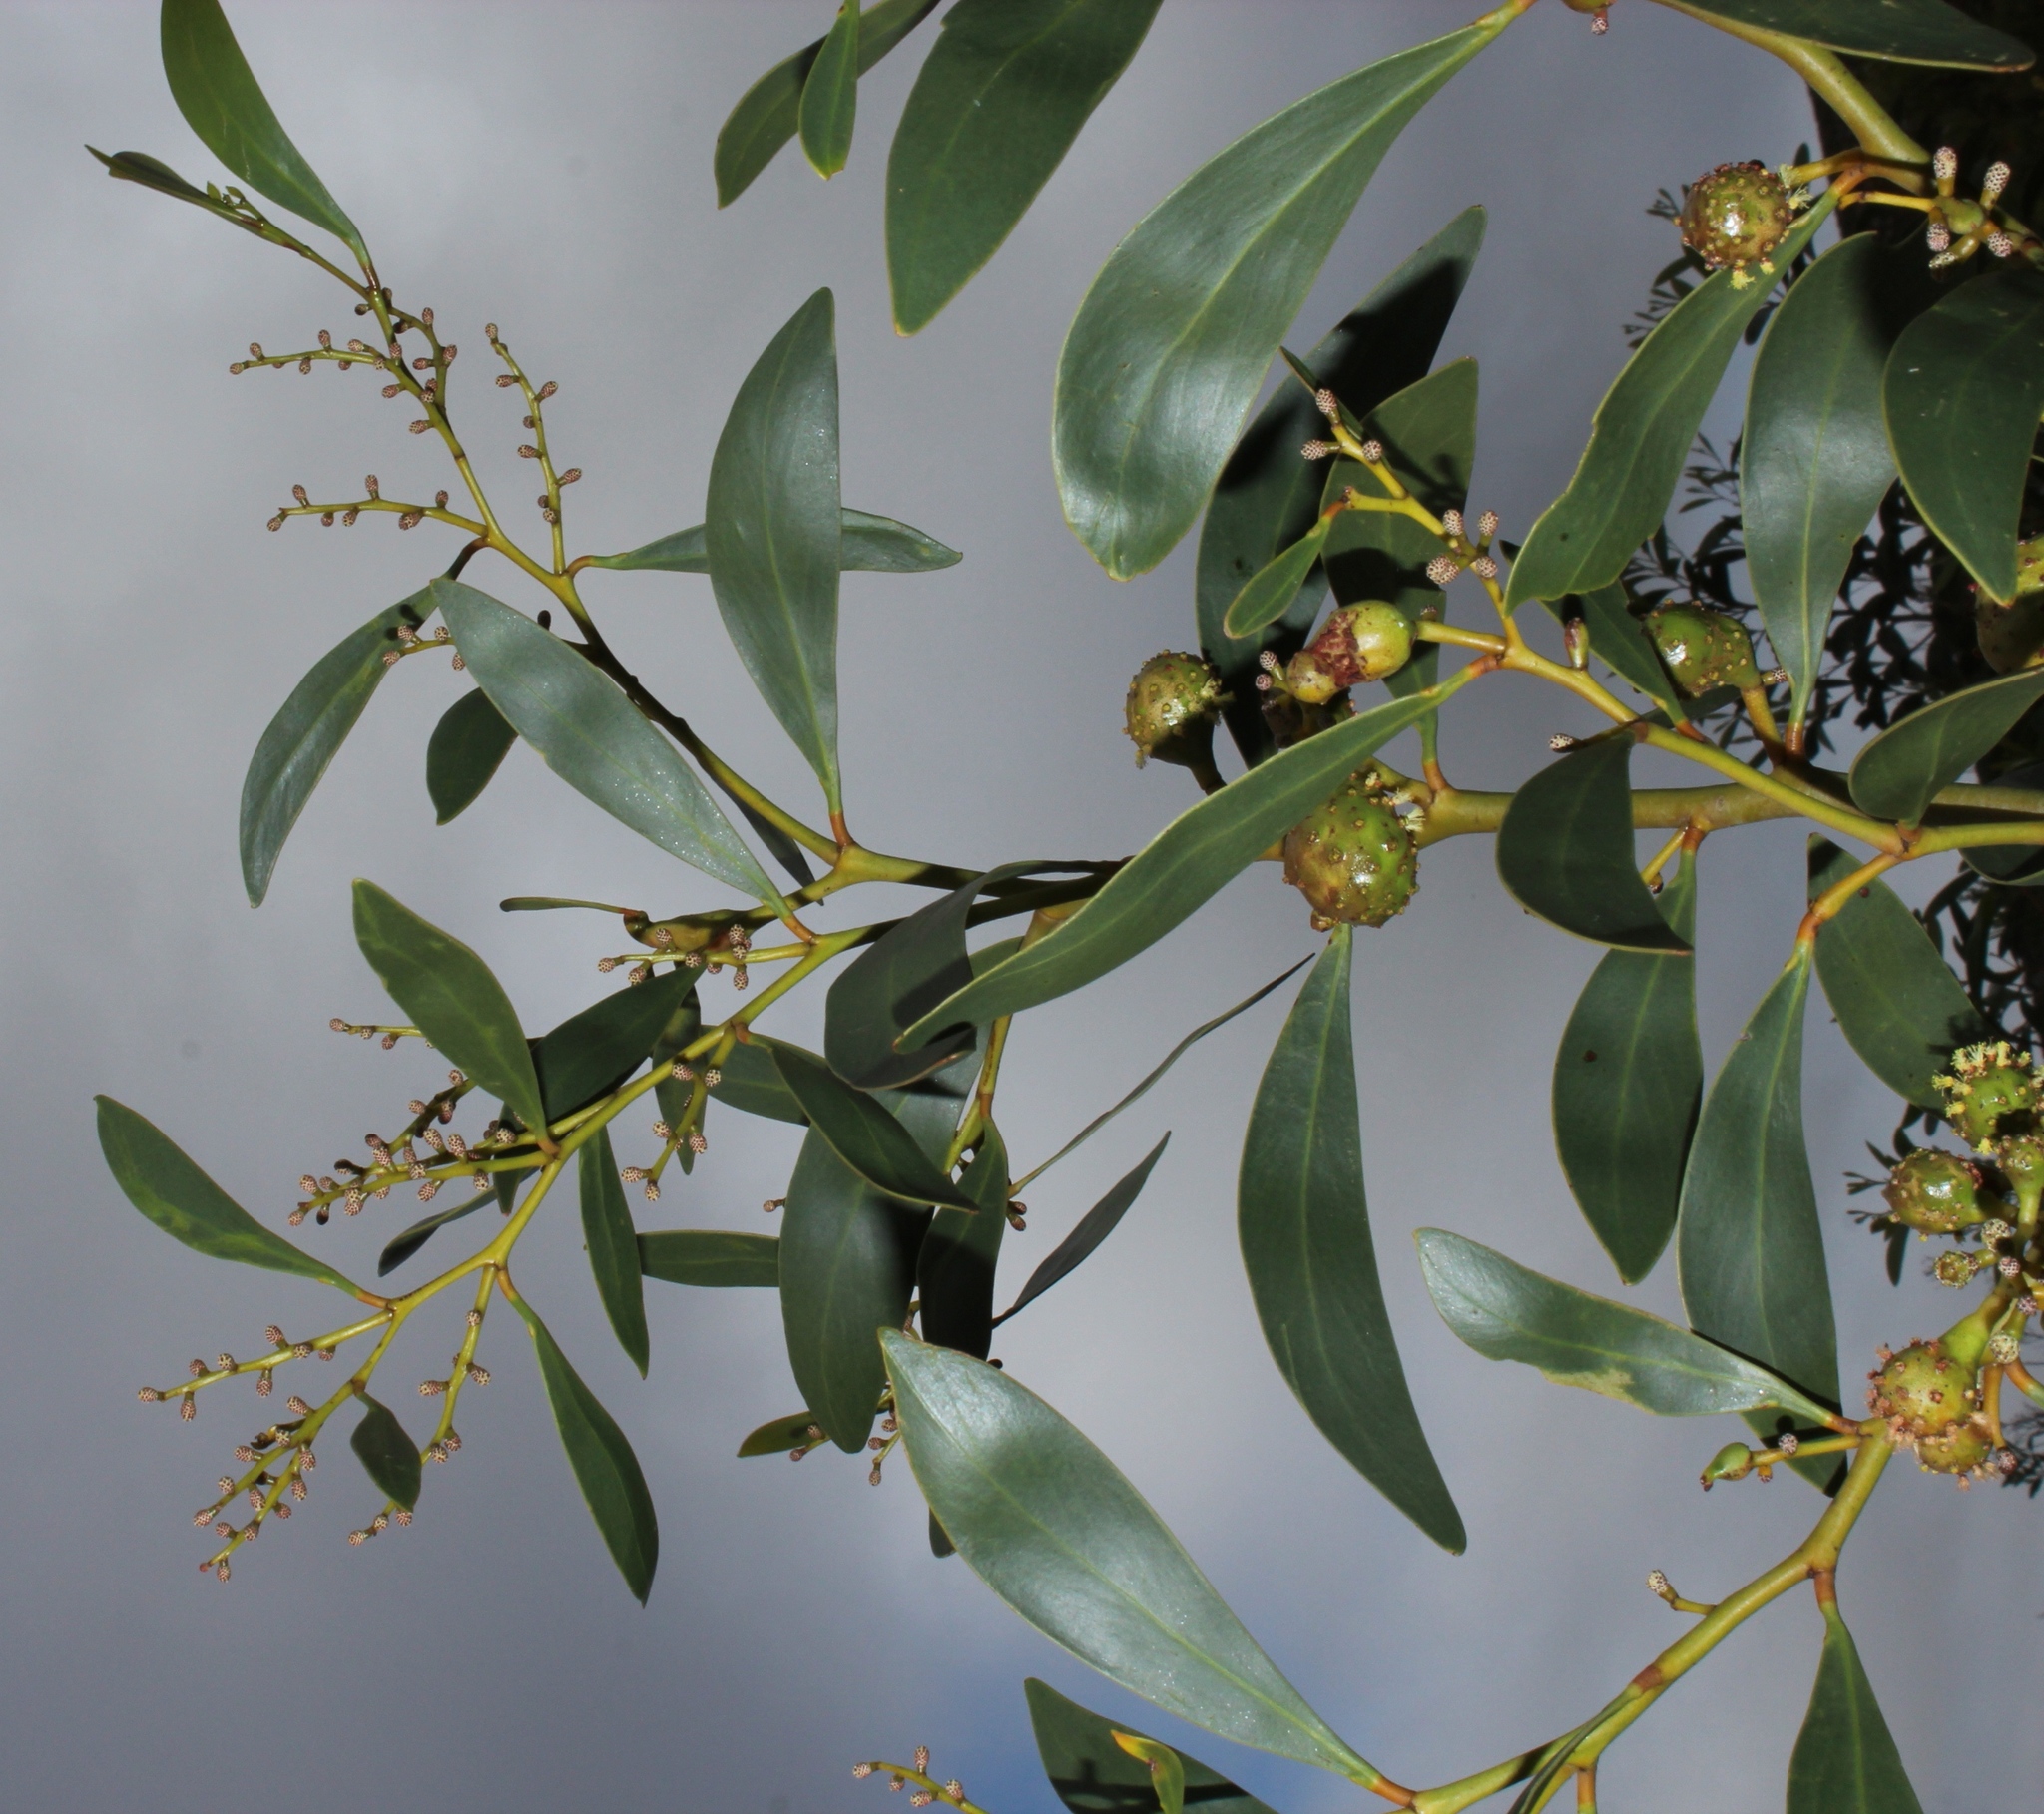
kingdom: Animalia
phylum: Arthropoda
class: Insecta
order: Hymenoptera
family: Pteromalidae
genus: Trichilogaster
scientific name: Trichilogaster signiventris
